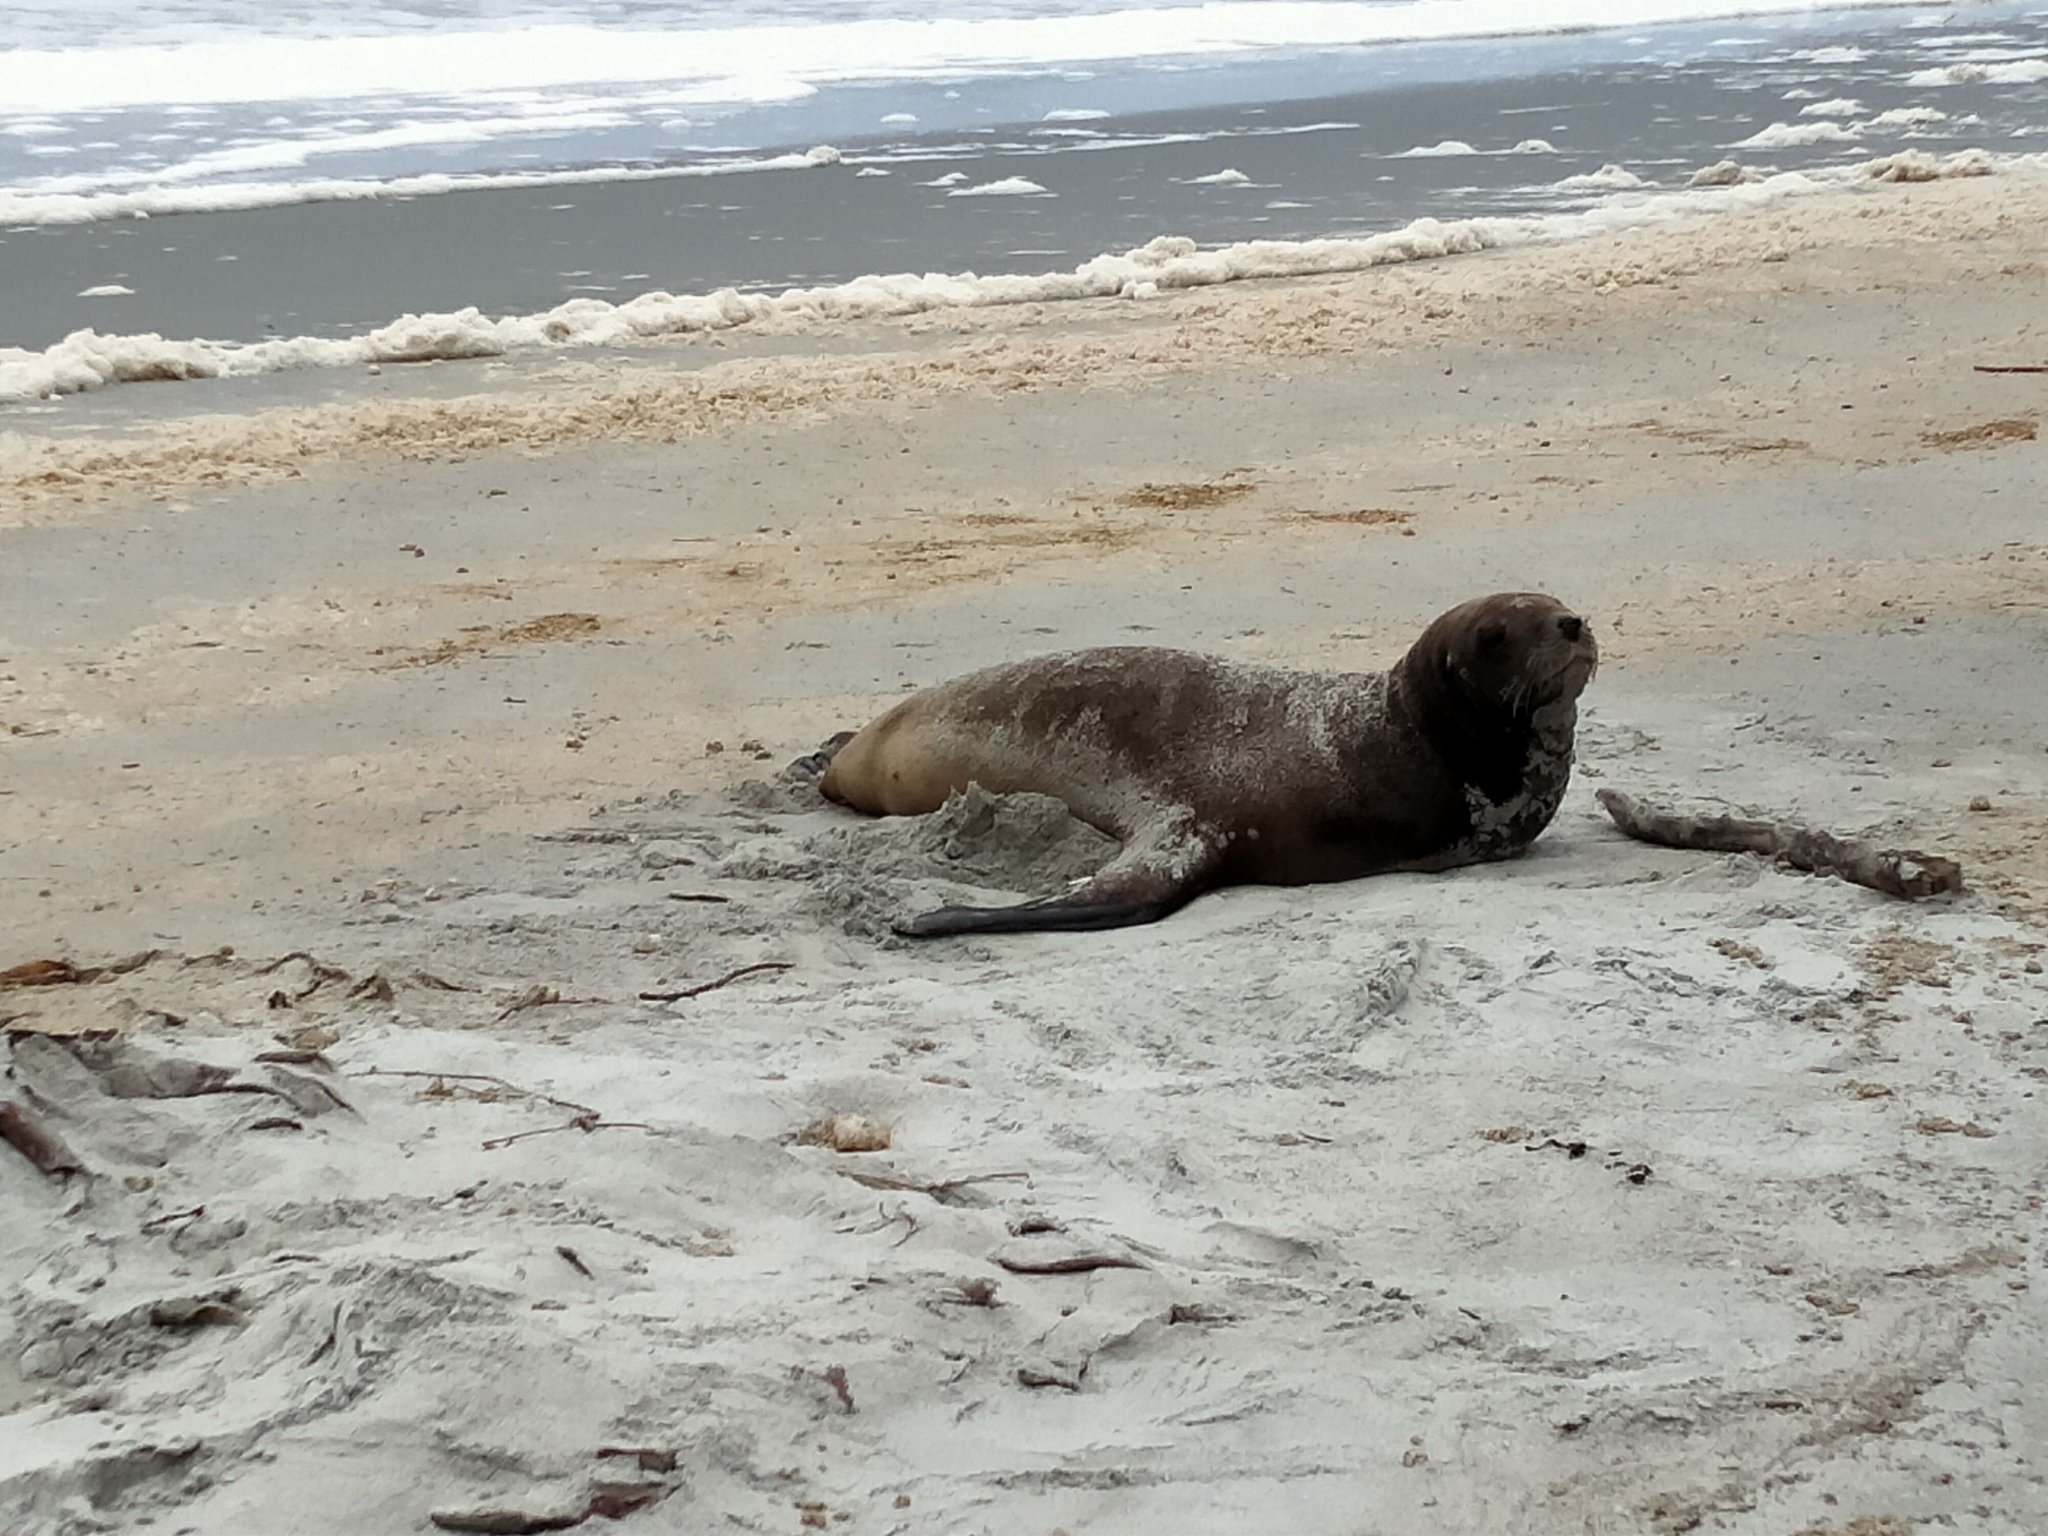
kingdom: Animalia
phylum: Chordata
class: Mammalia
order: Carnivora
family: Otariidae
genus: Phocarctos
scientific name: Phocarctos hookeri
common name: New zealand sea lion
